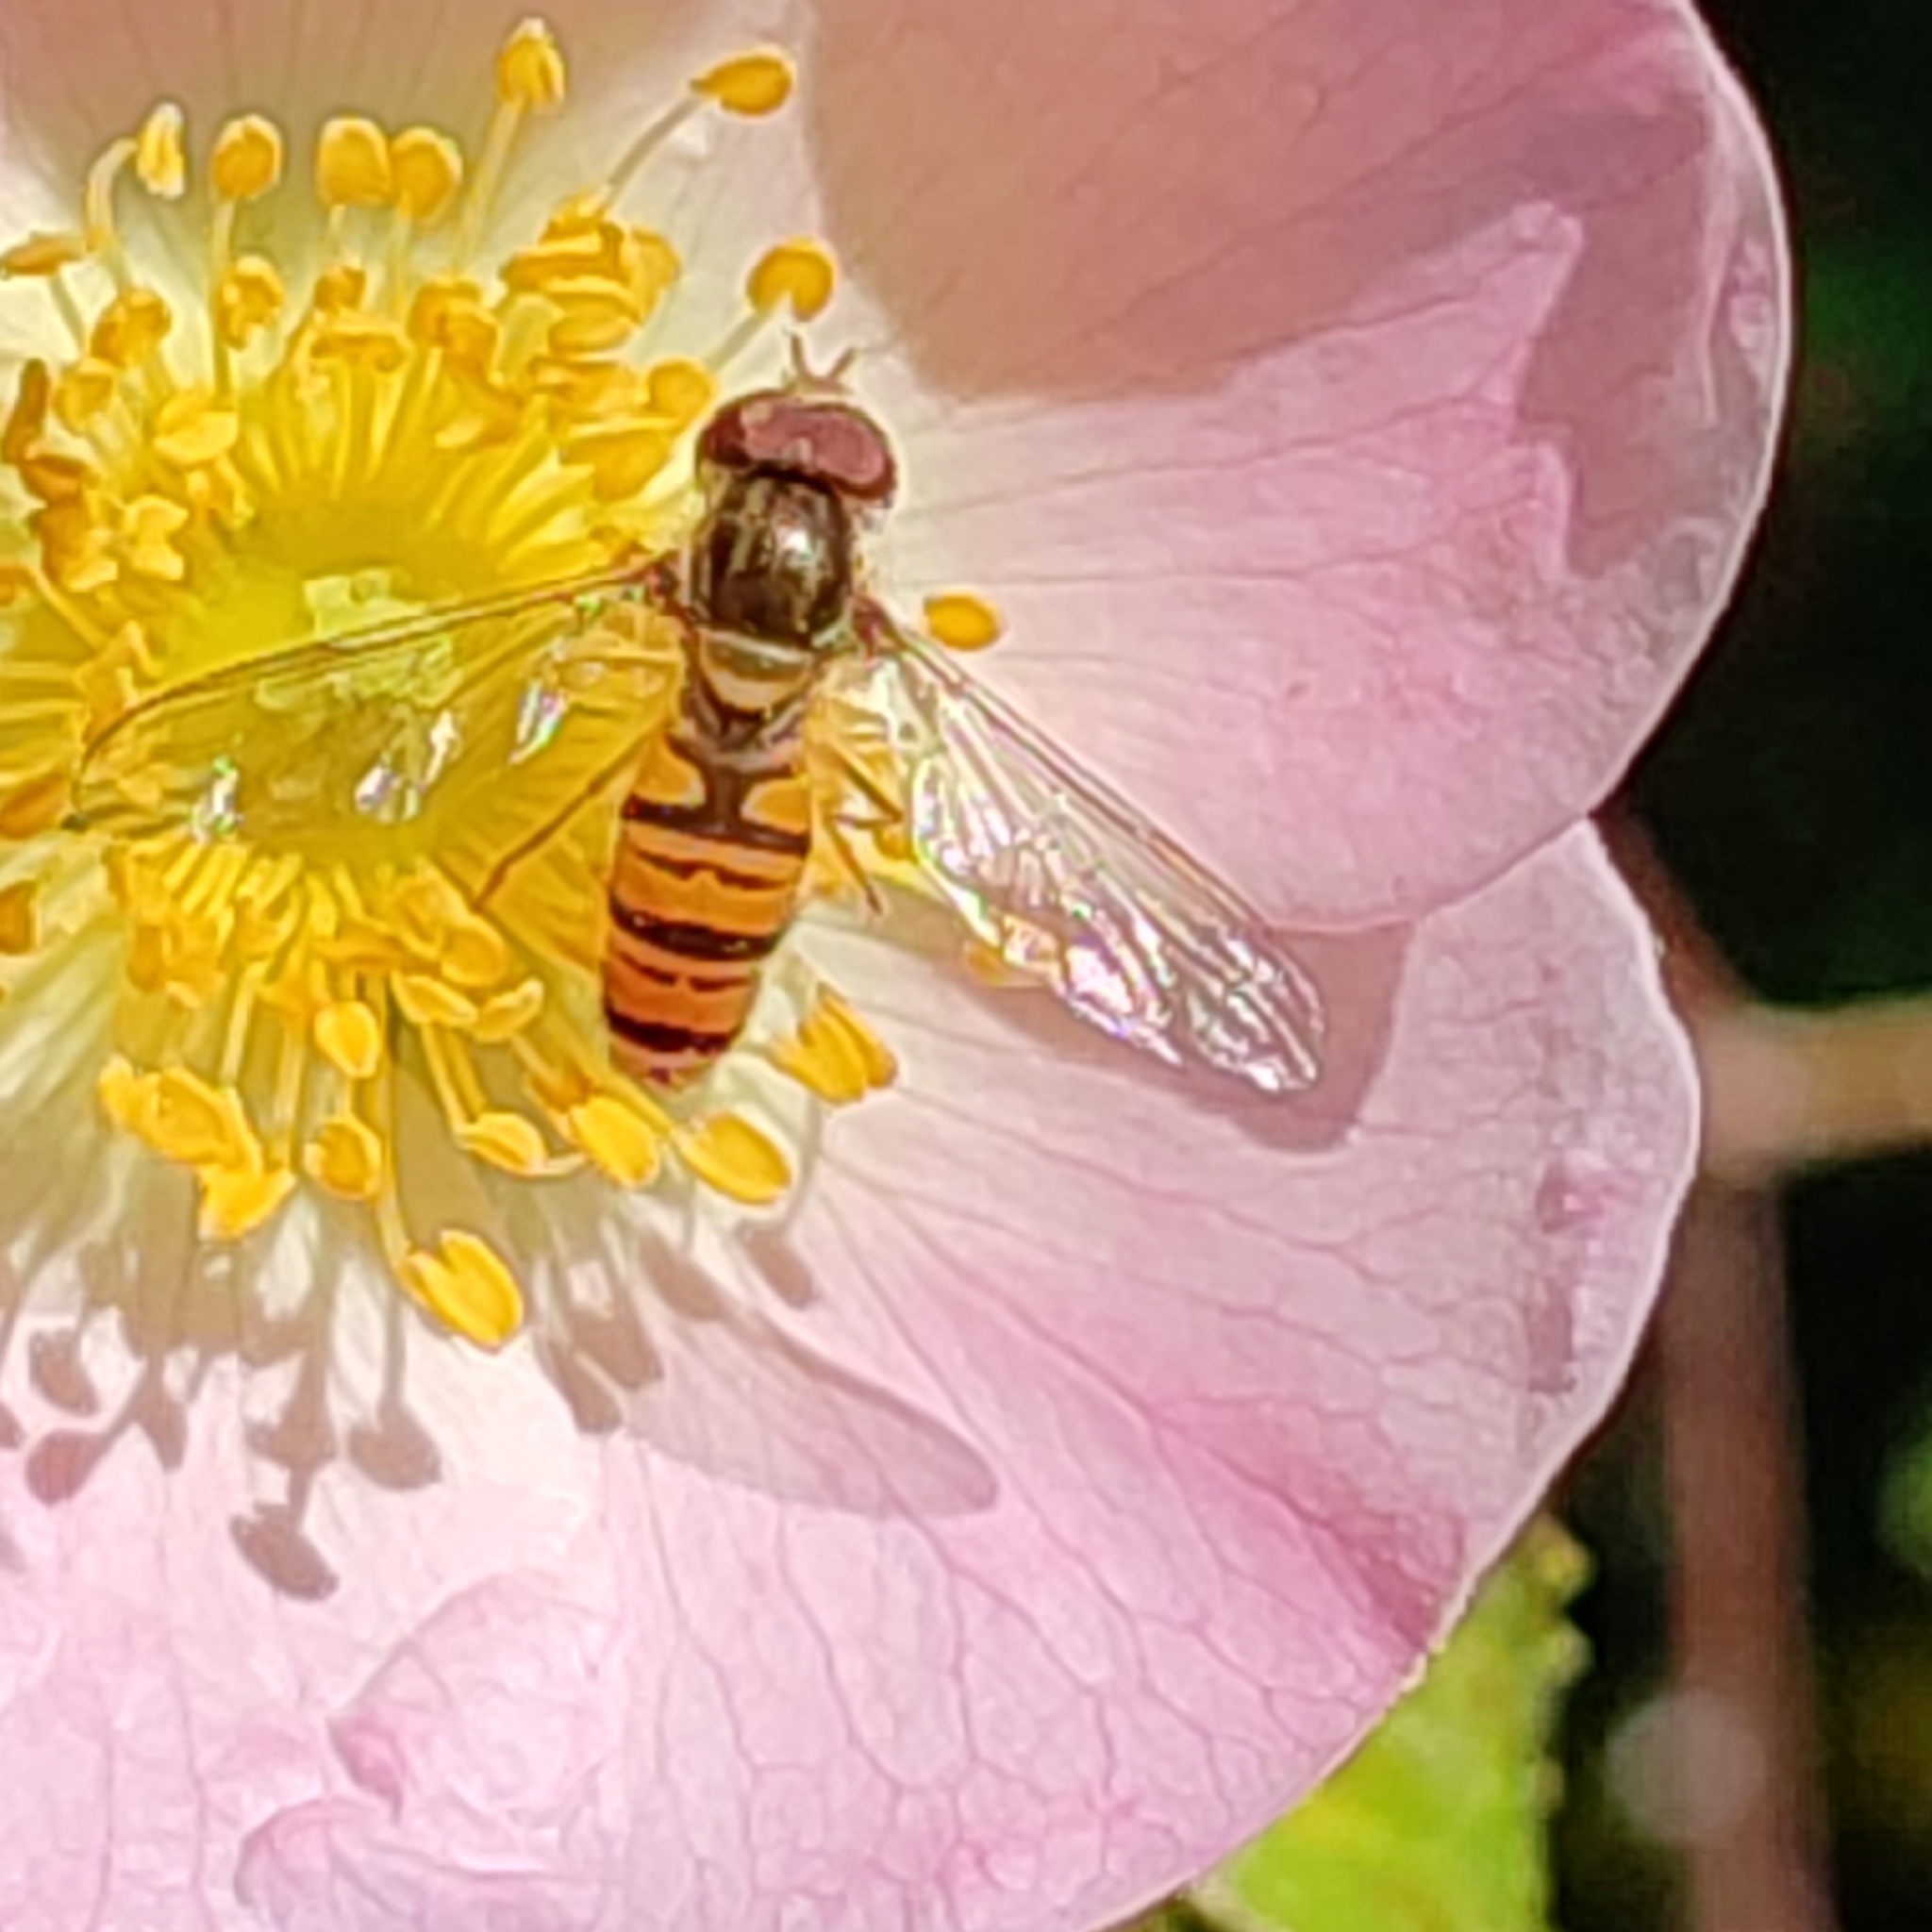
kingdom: Animalia
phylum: Arthropoda
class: Insecta
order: Diptera
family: Syrphidae
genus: Episyrphus
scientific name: Episyrphus balteatus
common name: Marmalade hoverfly
